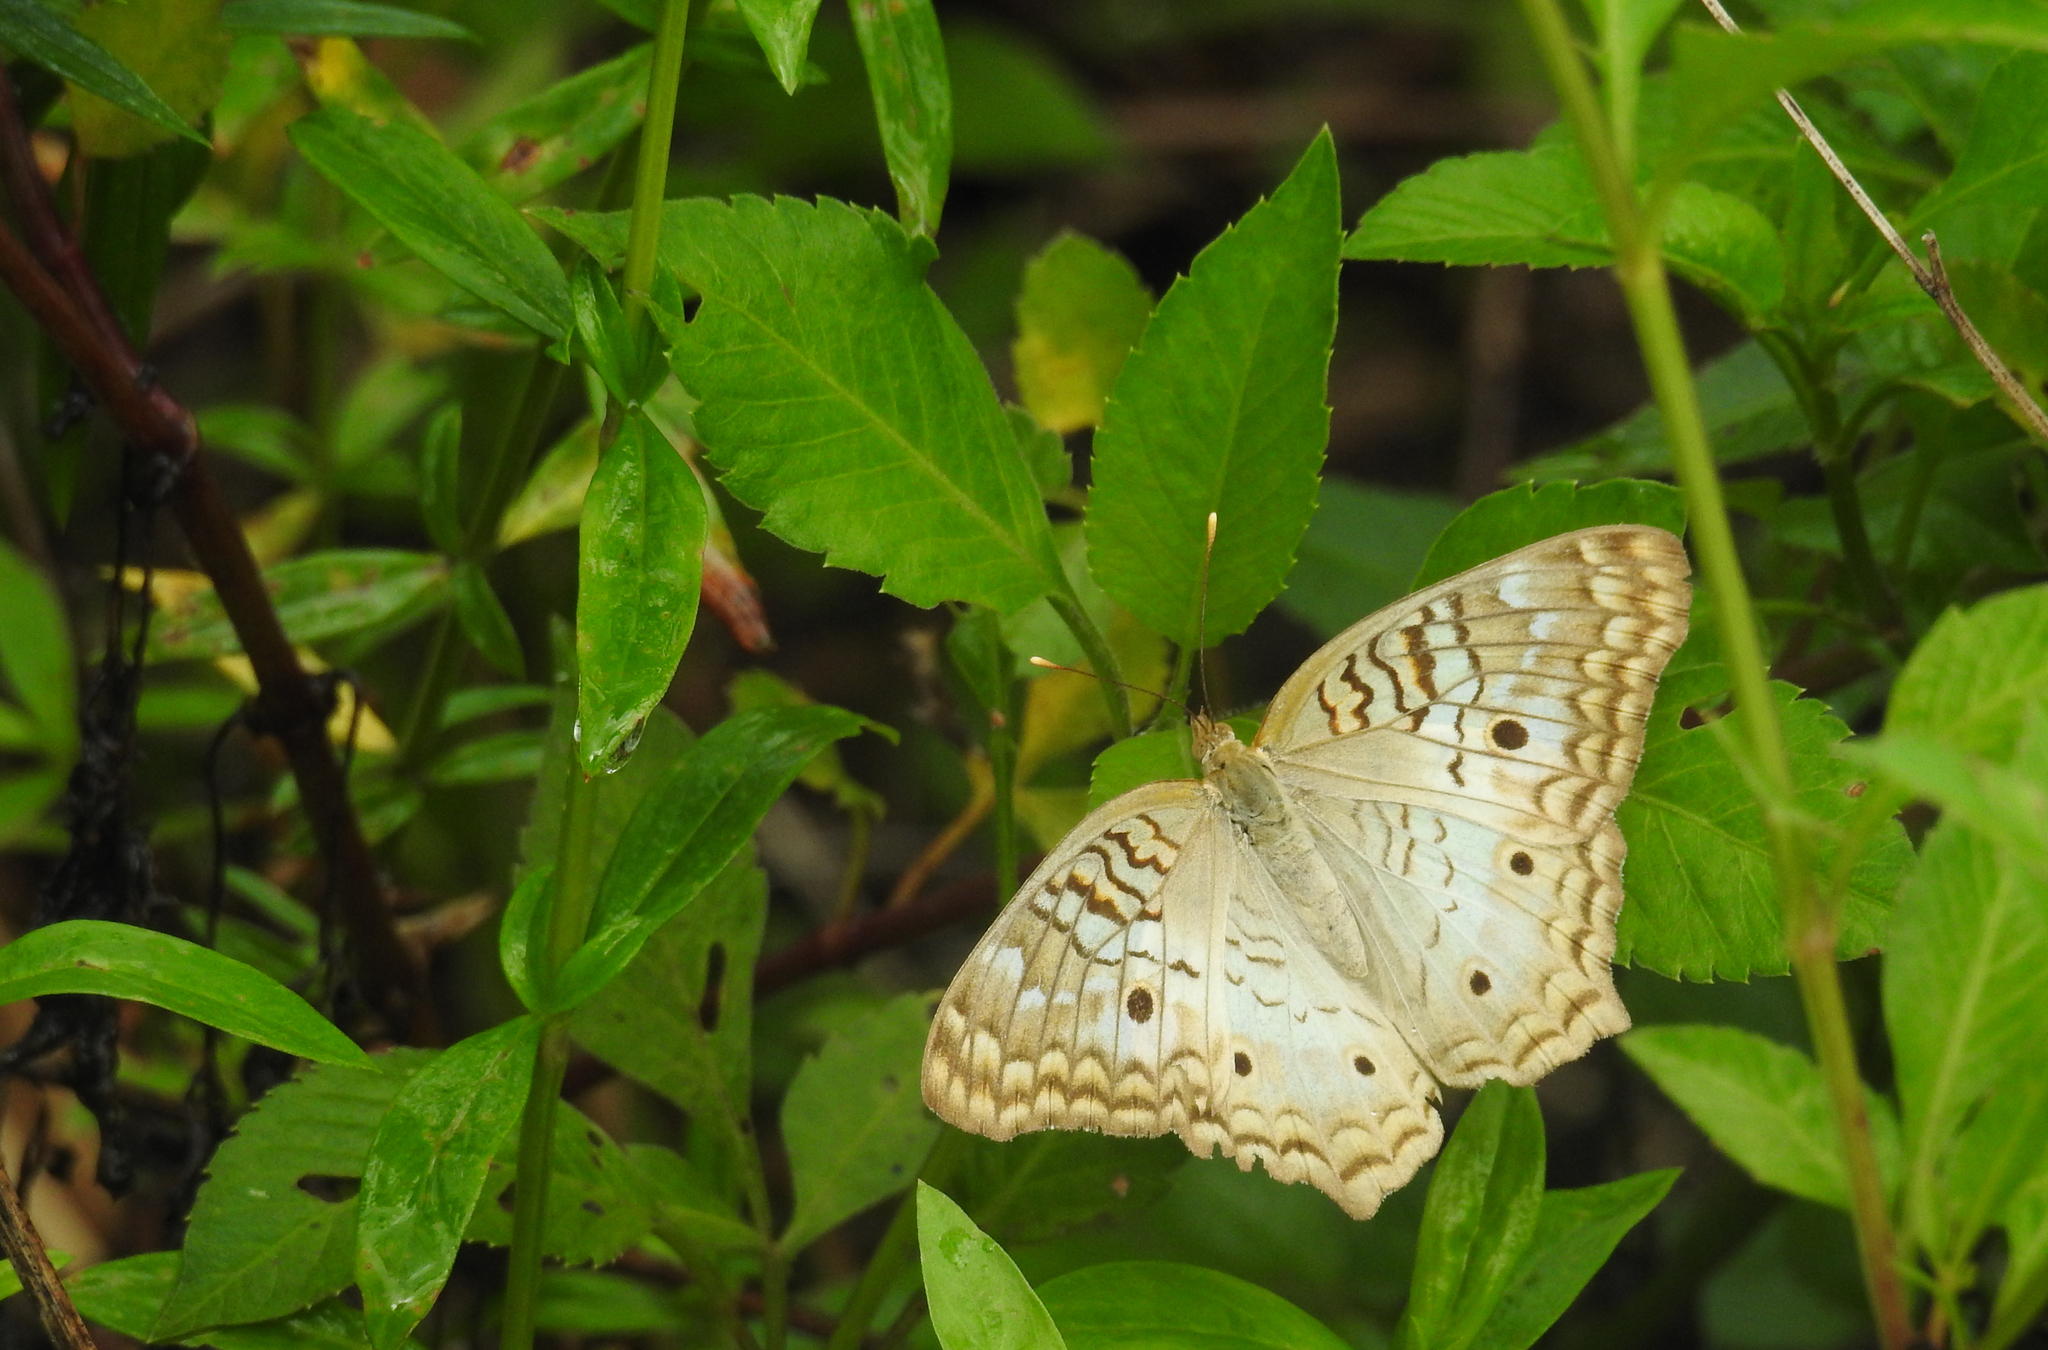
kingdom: Animalia
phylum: Arthropoda
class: Insecta
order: Lepidoptera
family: Nymphalidae
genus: Anartia
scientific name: Anartia jatrophae
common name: White peacock
